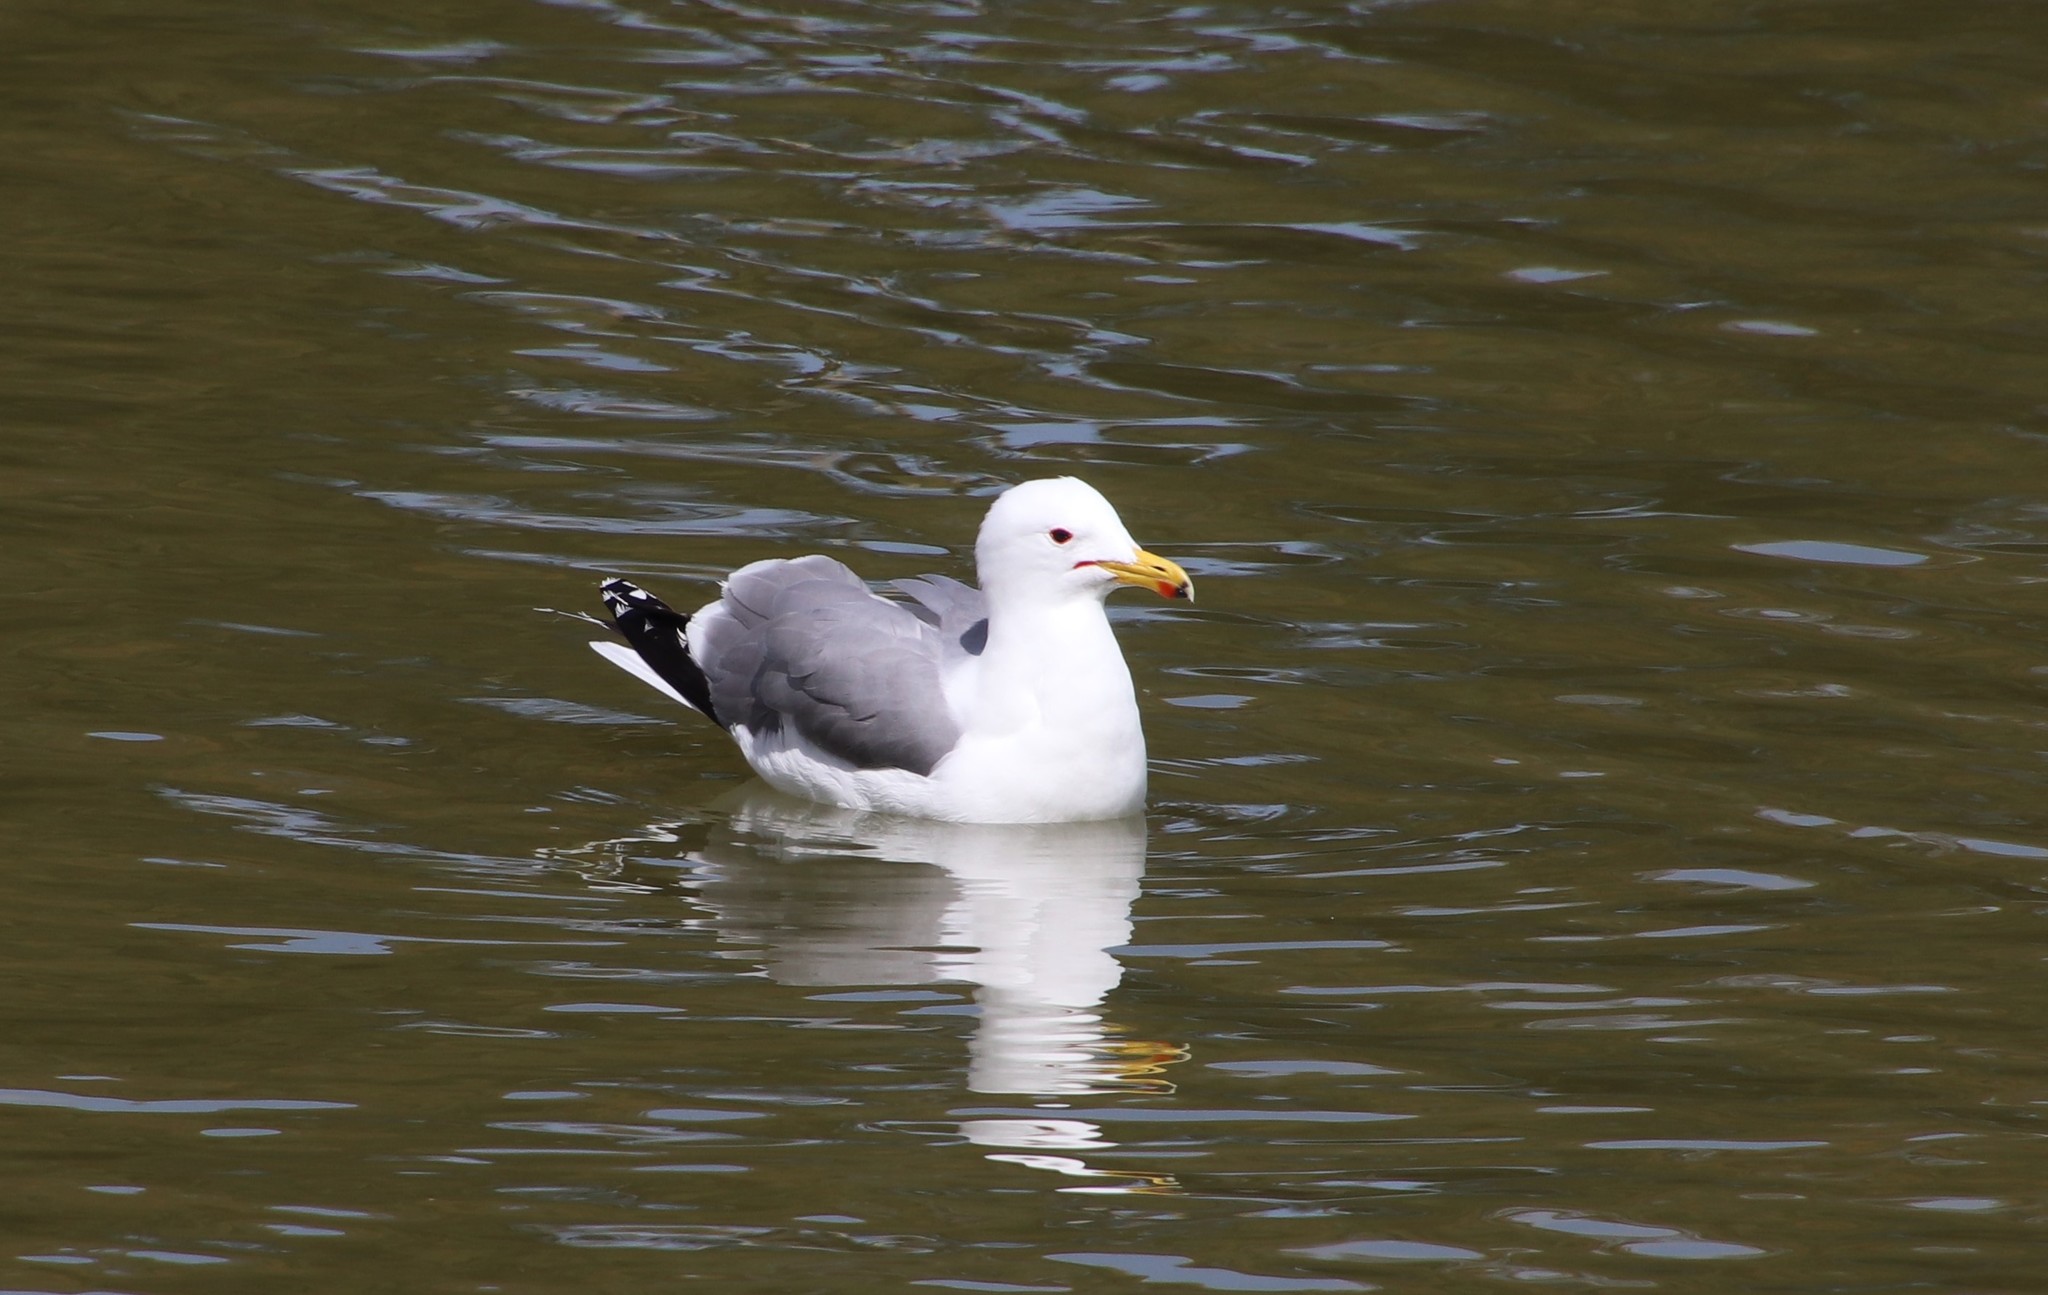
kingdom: Animalia
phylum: Chordata
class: Aves
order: Charadriiformes
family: Laridae
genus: Larus
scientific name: Larus californicus
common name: California gull
